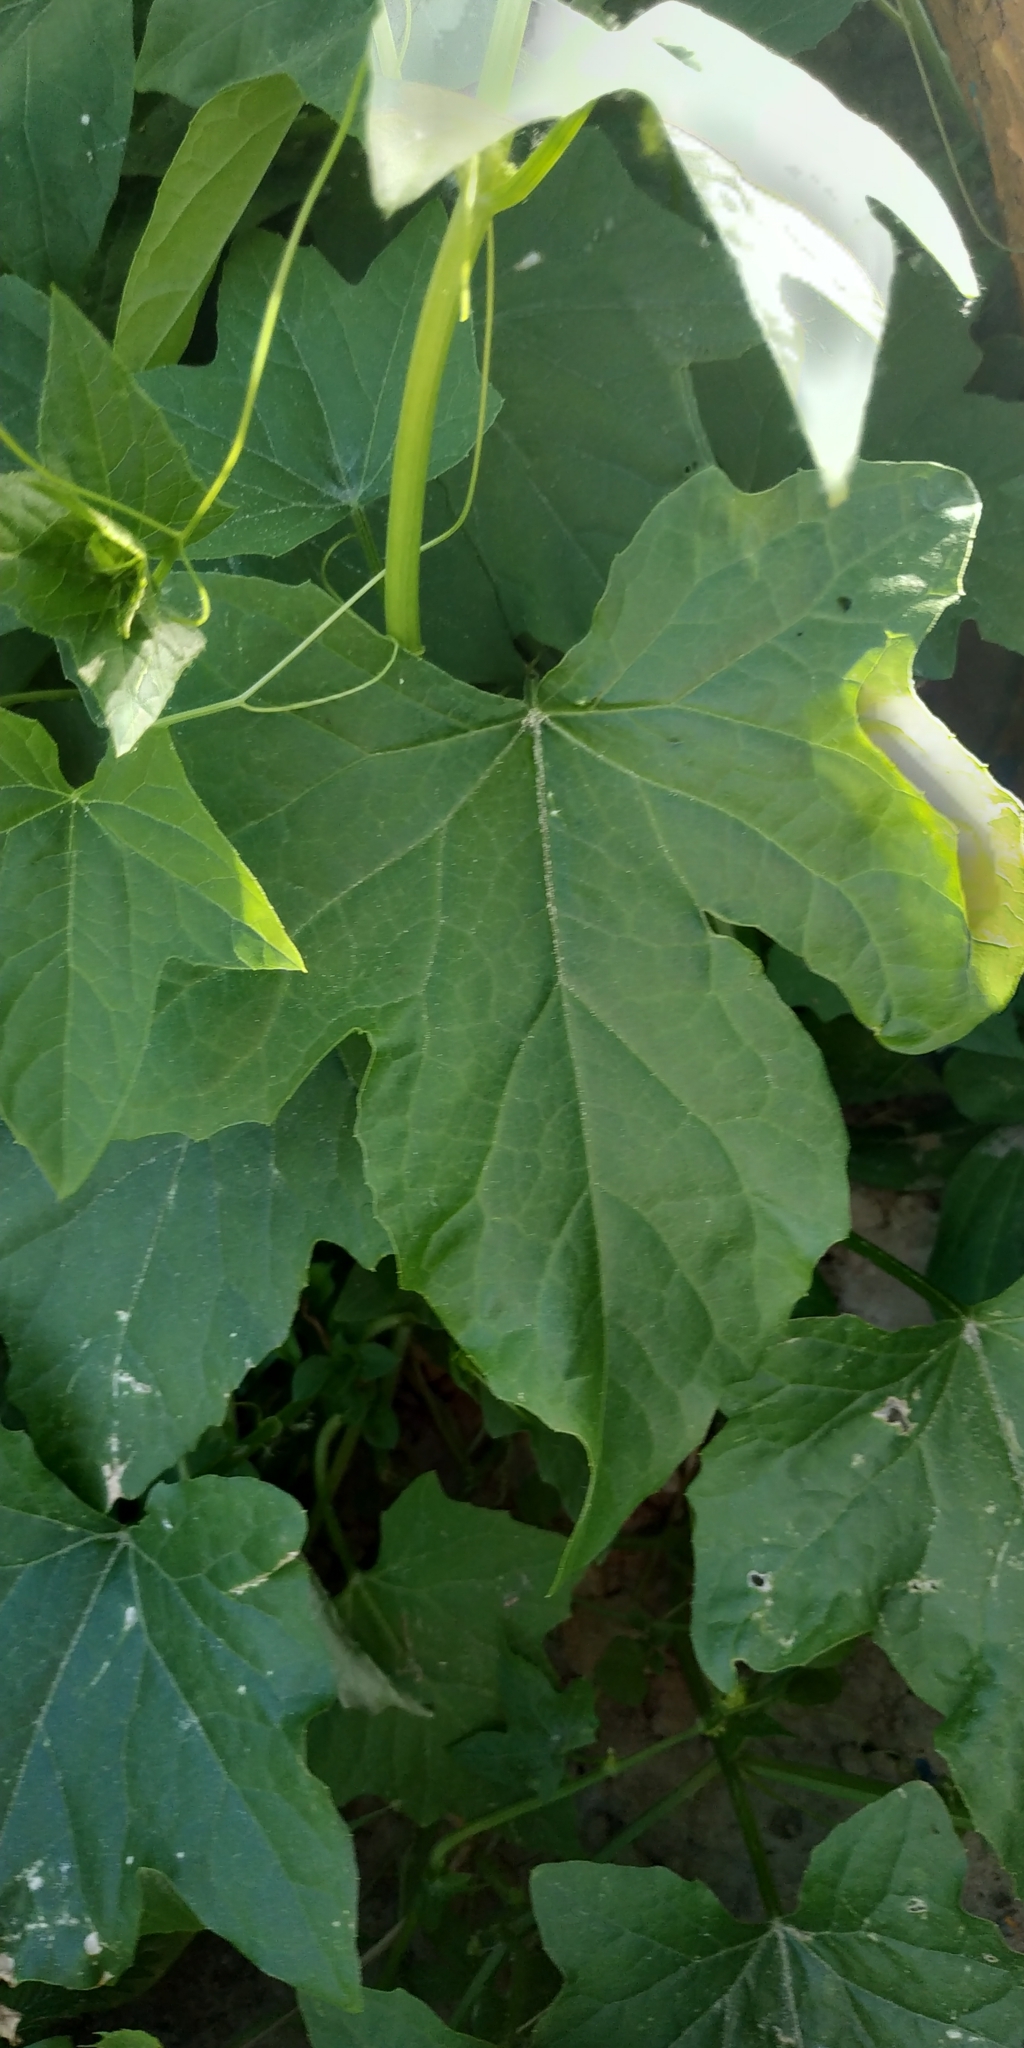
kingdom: Plantae
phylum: Tracheophyta
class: Magnoliopsida
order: Cucurbitales
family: Cucurbitaceae
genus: Echinocystis
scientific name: Echinocystis lobata
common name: Wild cucumber
